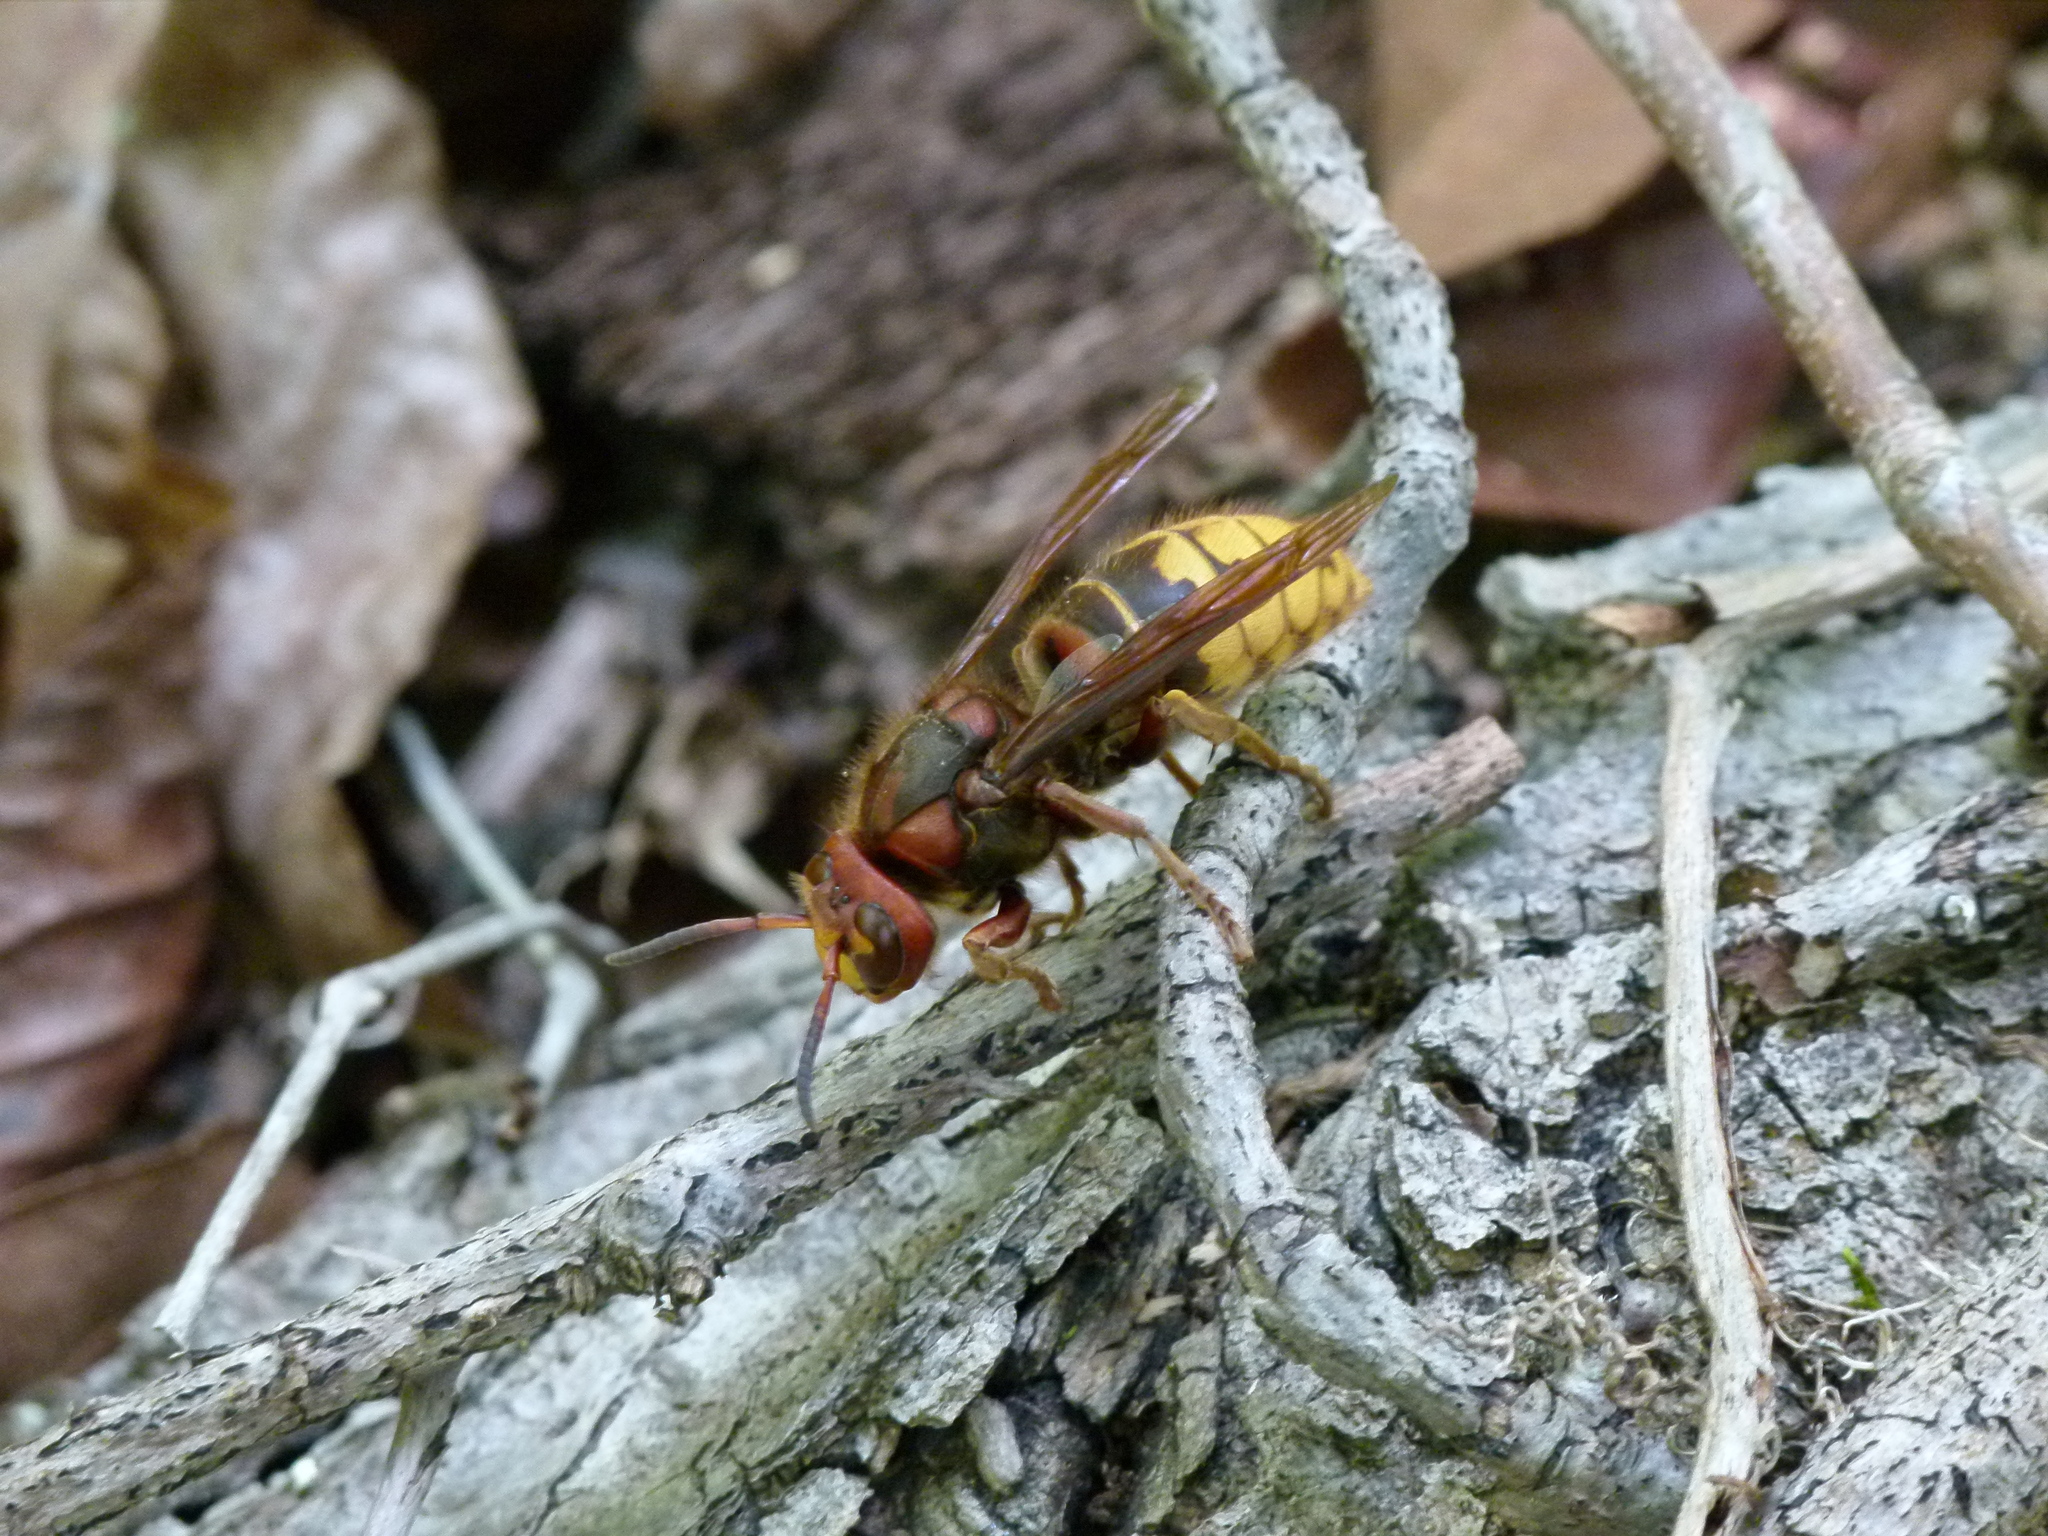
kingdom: Animalia
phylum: Arthropoda
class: Insecta
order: Hymenoptera
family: Vespidae
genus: Vespa
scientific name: Vespa crabro
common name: Hornet
